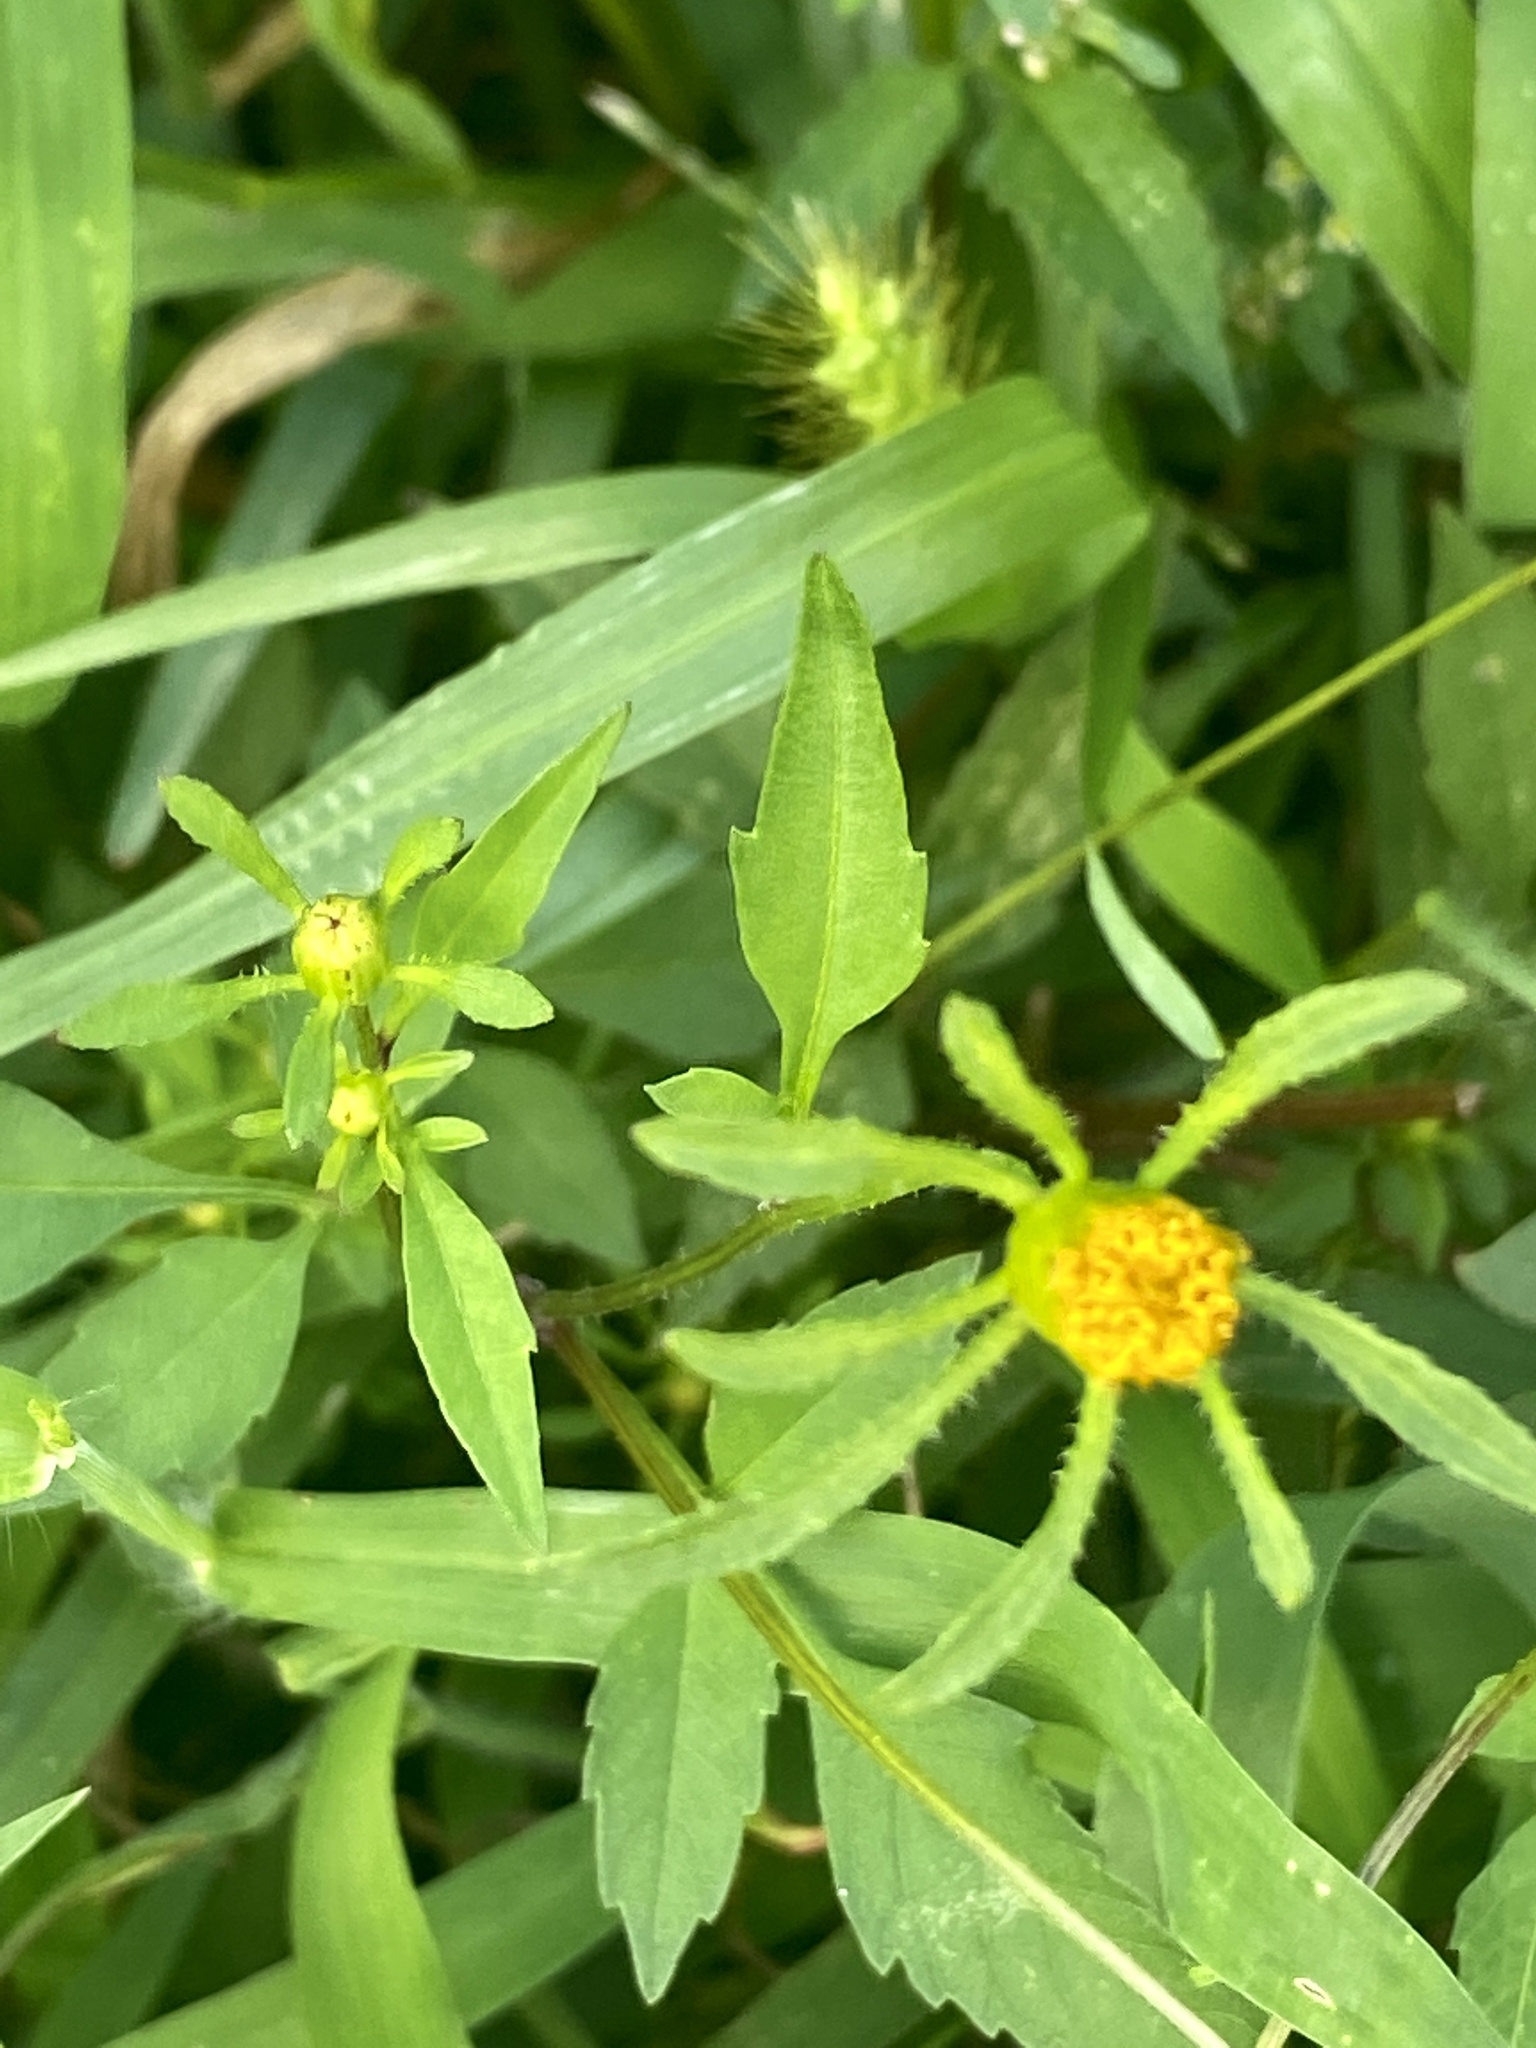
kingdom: Plantae
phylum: Tracheophyta
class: Magnoliopsida
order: Asterales
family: Asteraceae
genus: Bidens
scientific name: Bidens frondosa
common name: Beggarticks
